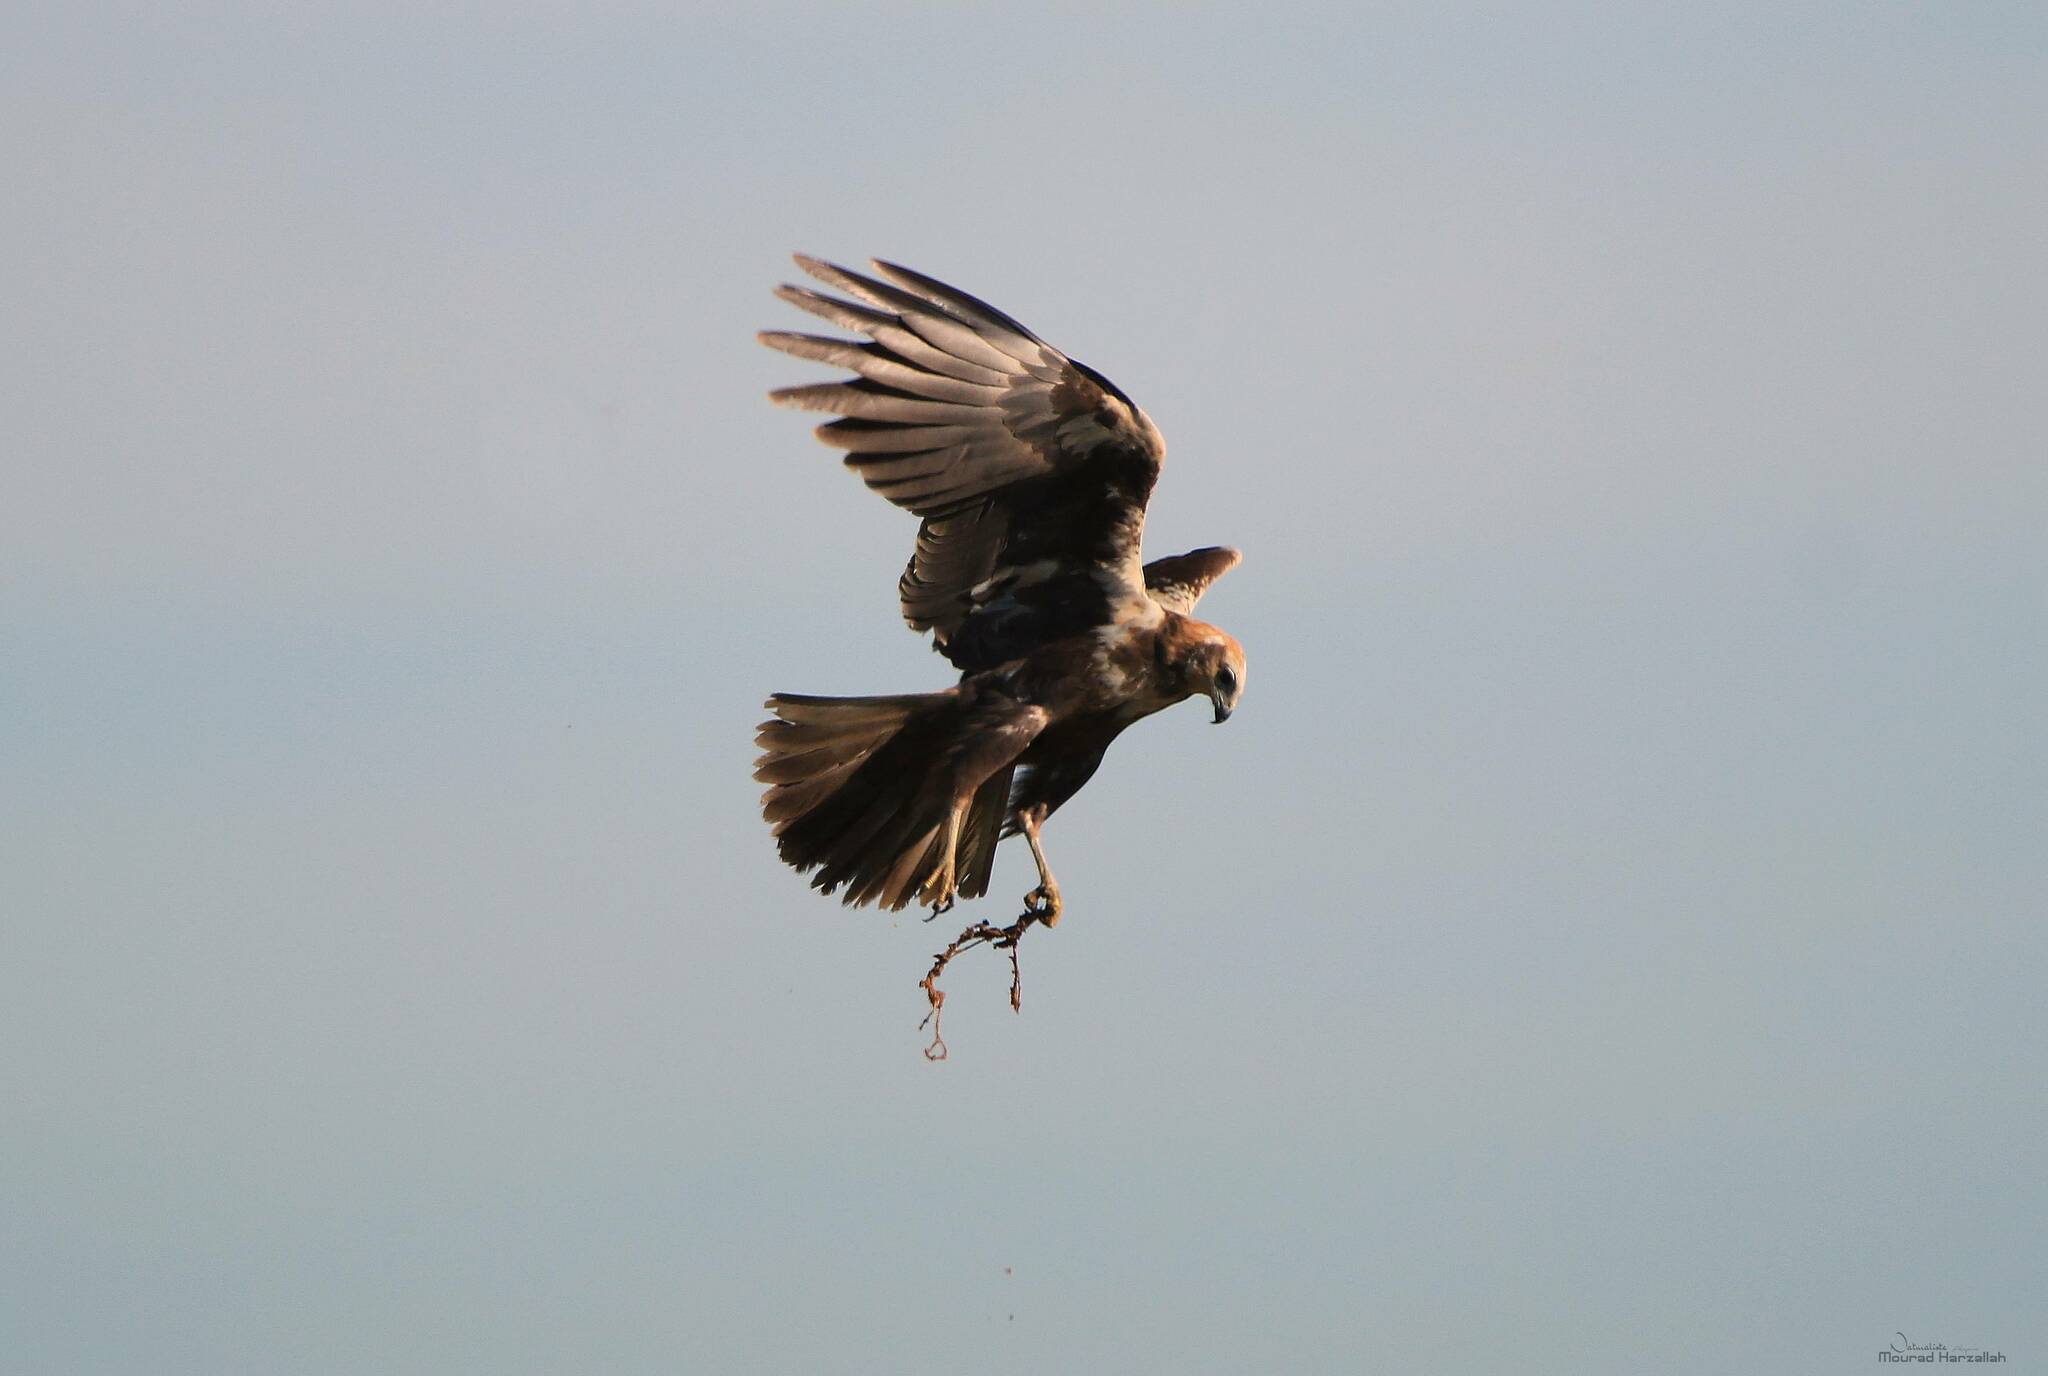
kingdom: Animalia
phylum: Chordata
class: Aves
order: Accipitriformes
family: Accipitridae
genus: Circus
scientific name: Circus aeruginosus
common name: Western marsh harrier
